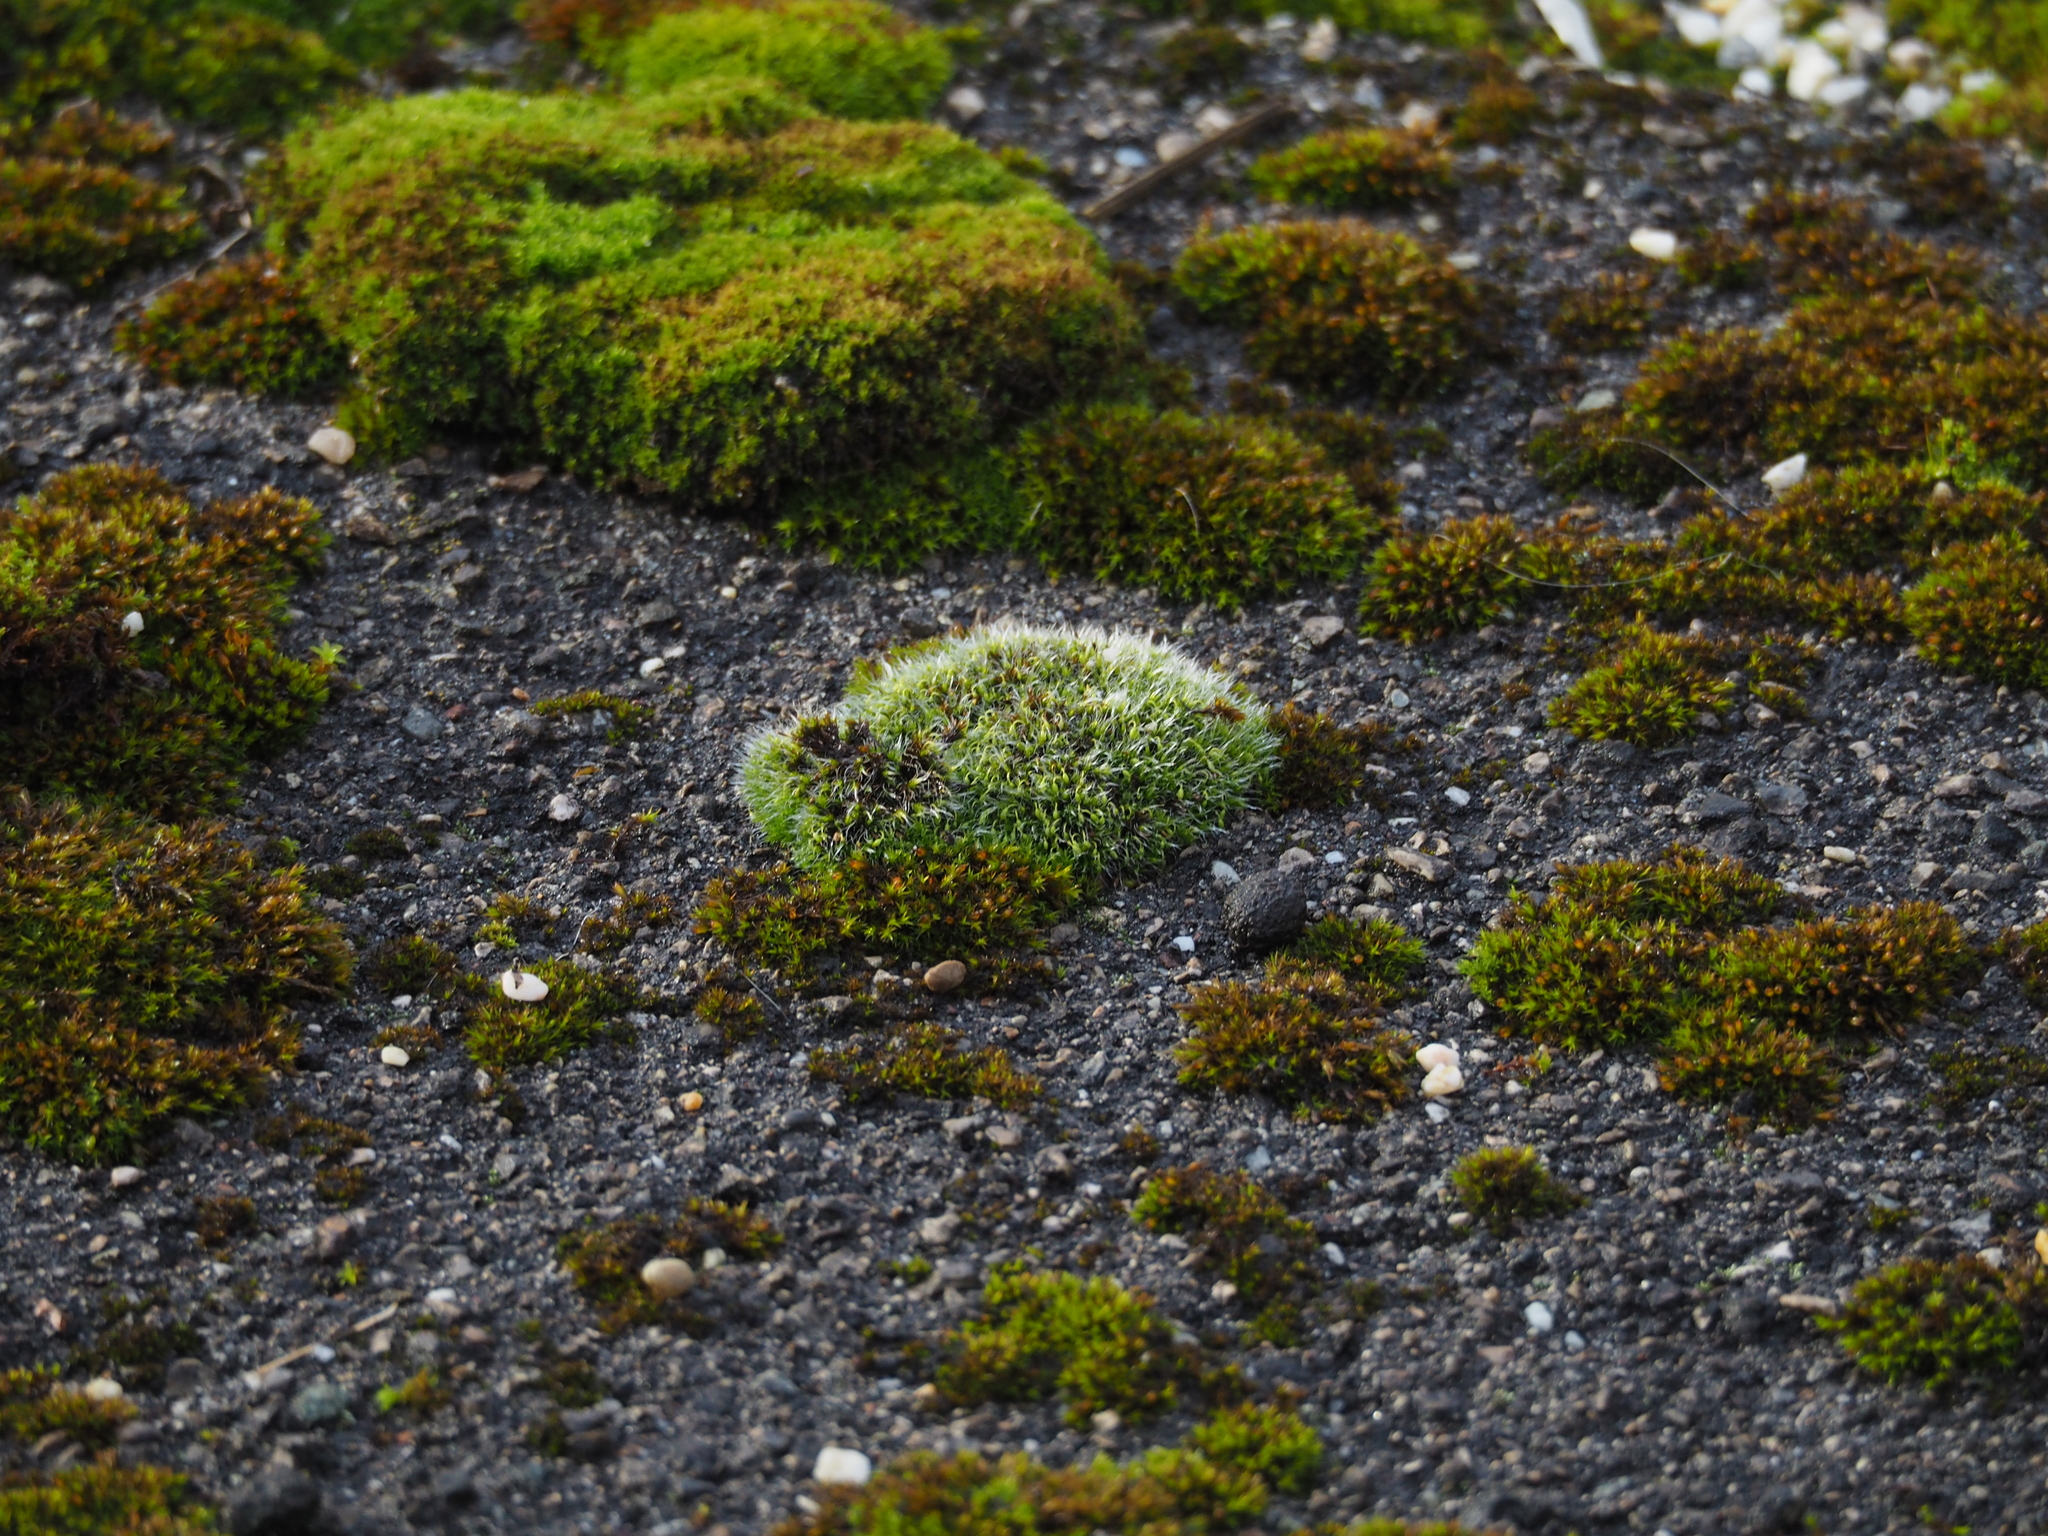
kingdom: Plantae
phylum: Bryophyta
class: Bryopsida
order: Grimmiales
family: Grimmiaceae
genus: Grimmia
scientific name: Grimmia pulvinata
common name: Grey-cushioned grimmia
